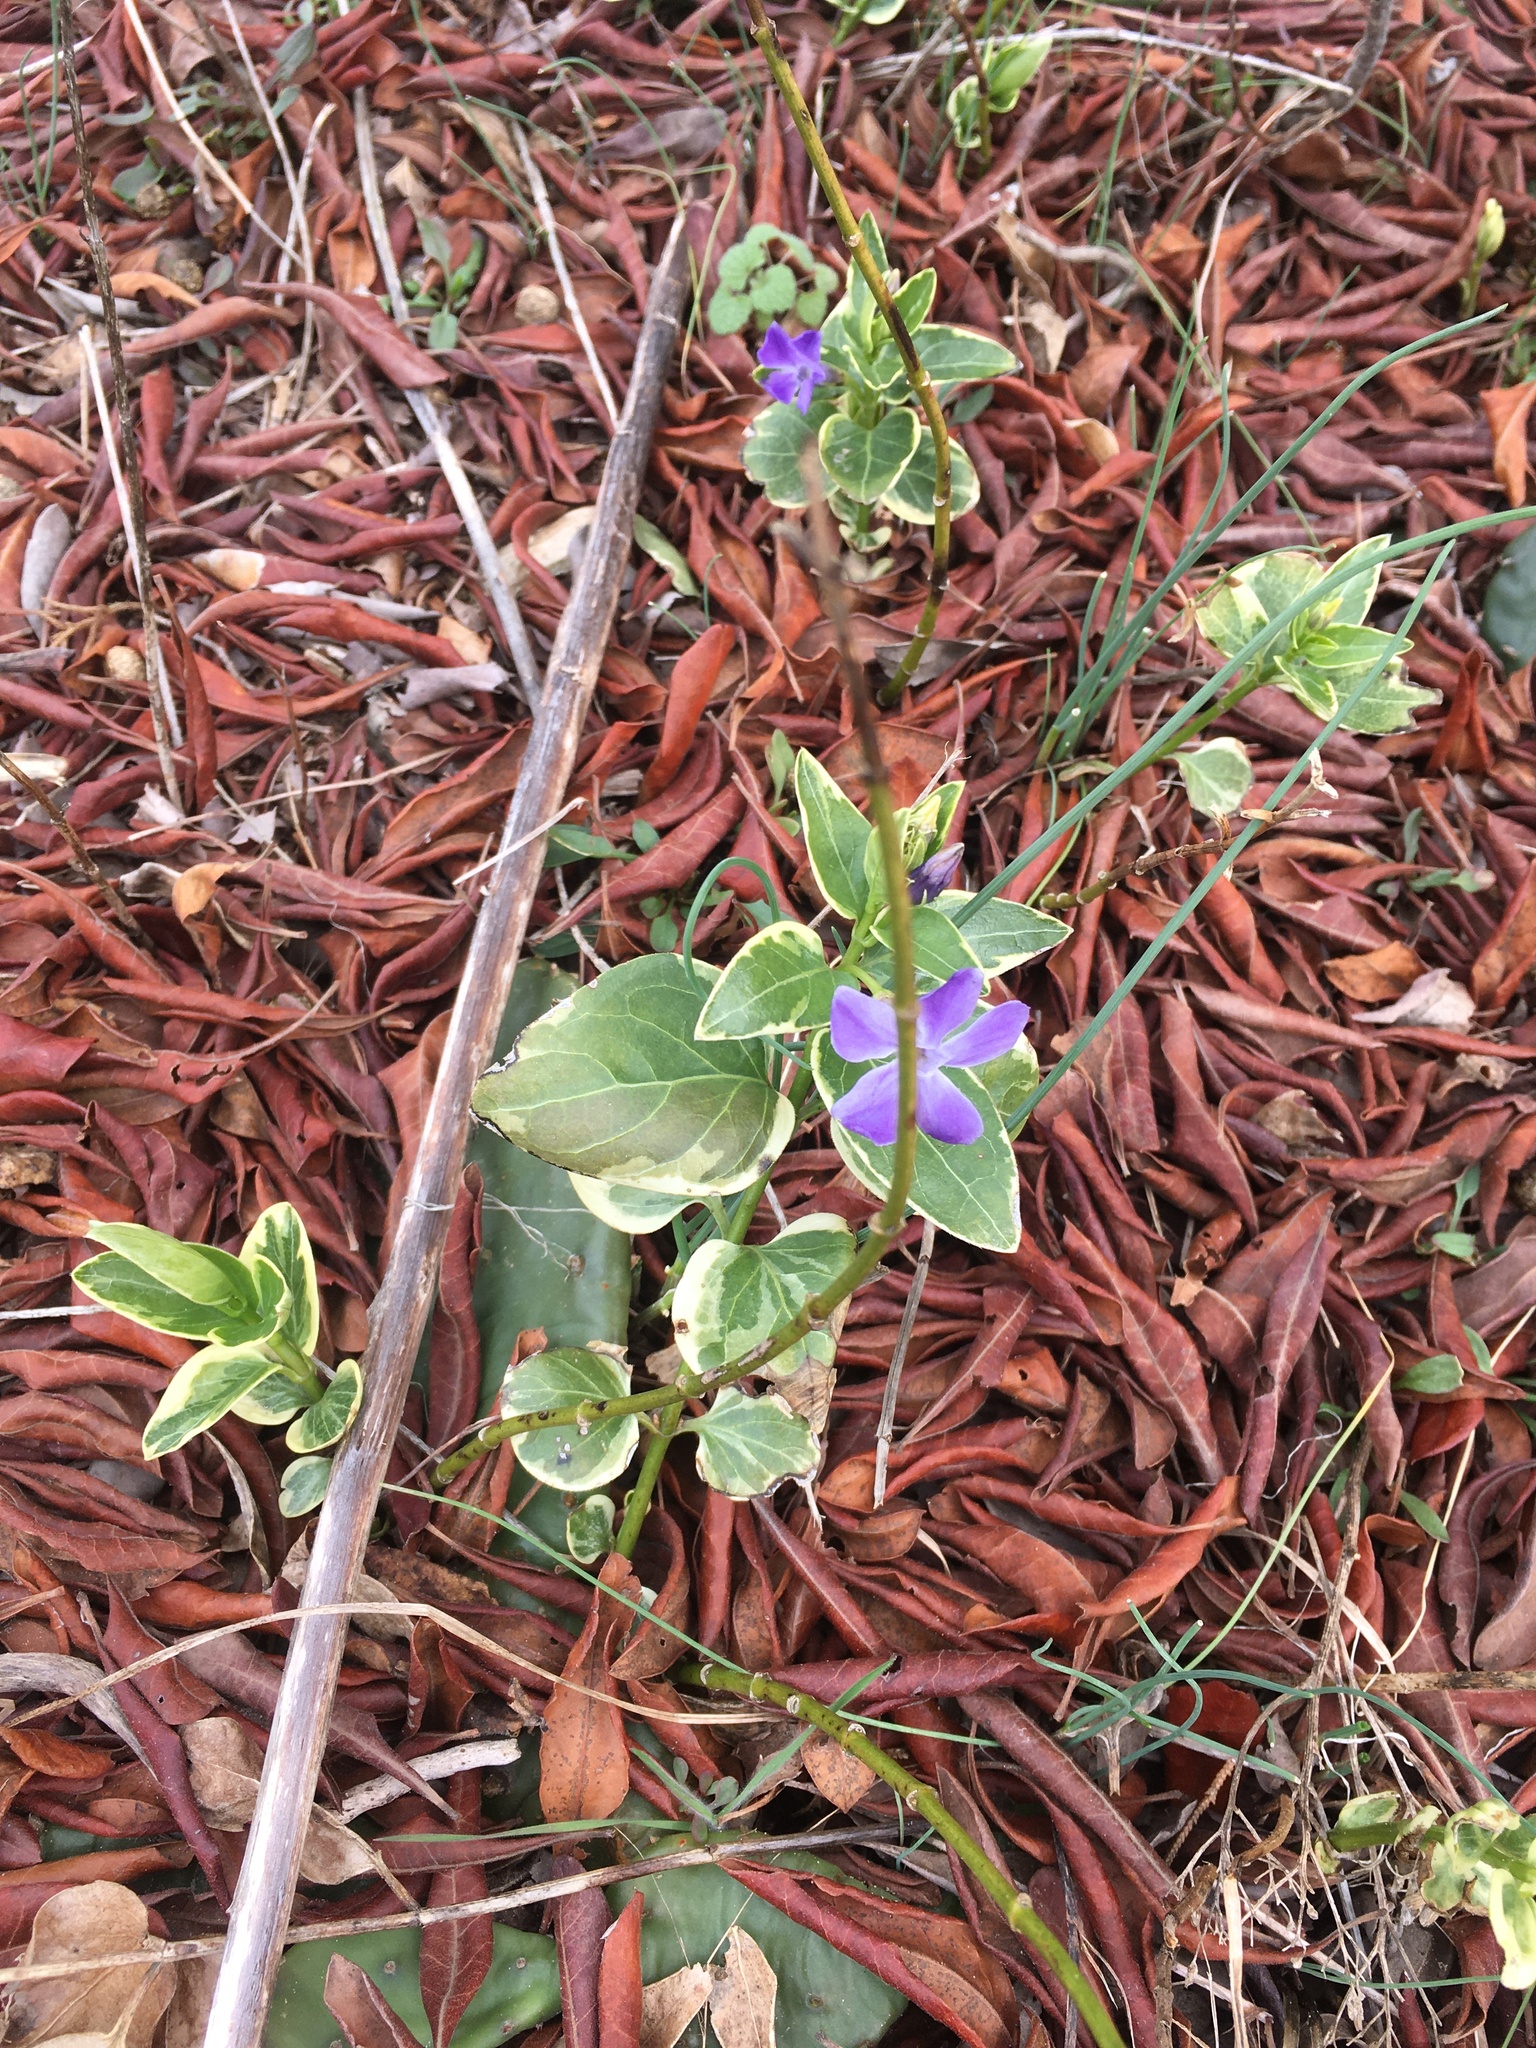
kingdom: Plantae
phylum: Tracheophyta
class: Magnoliopsida
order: Gentianales
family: Apocynaceae
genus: Vinca
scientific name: Vinca major
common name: Greater periwinkle
